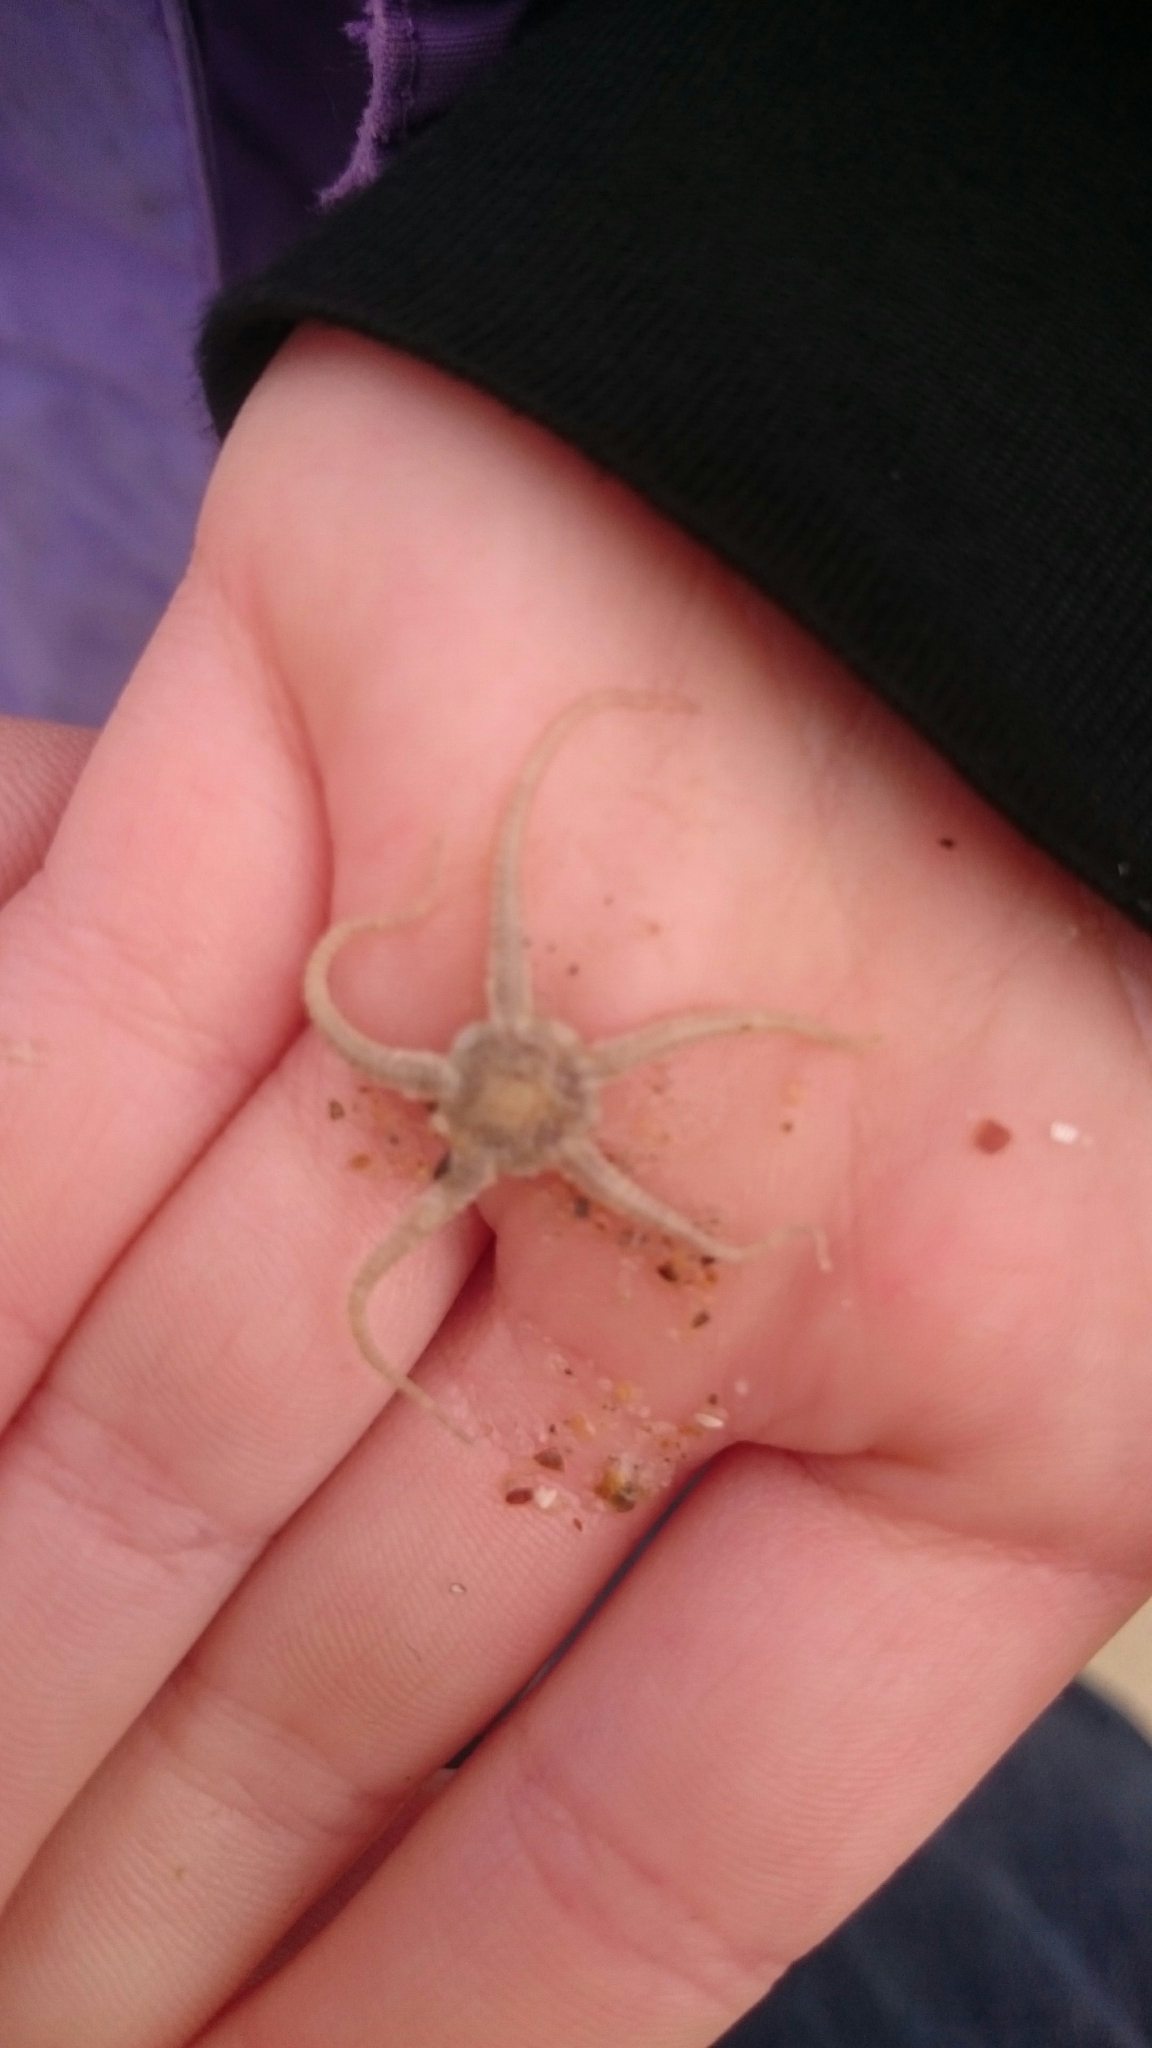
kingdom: Animalia
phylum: Echinodermata
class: Ophiuroidea
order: Amphilepidida
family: Ophiotrichidae
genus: Ophiothrix
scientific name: Ophiothrix fragilis
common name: Common brittlestar
